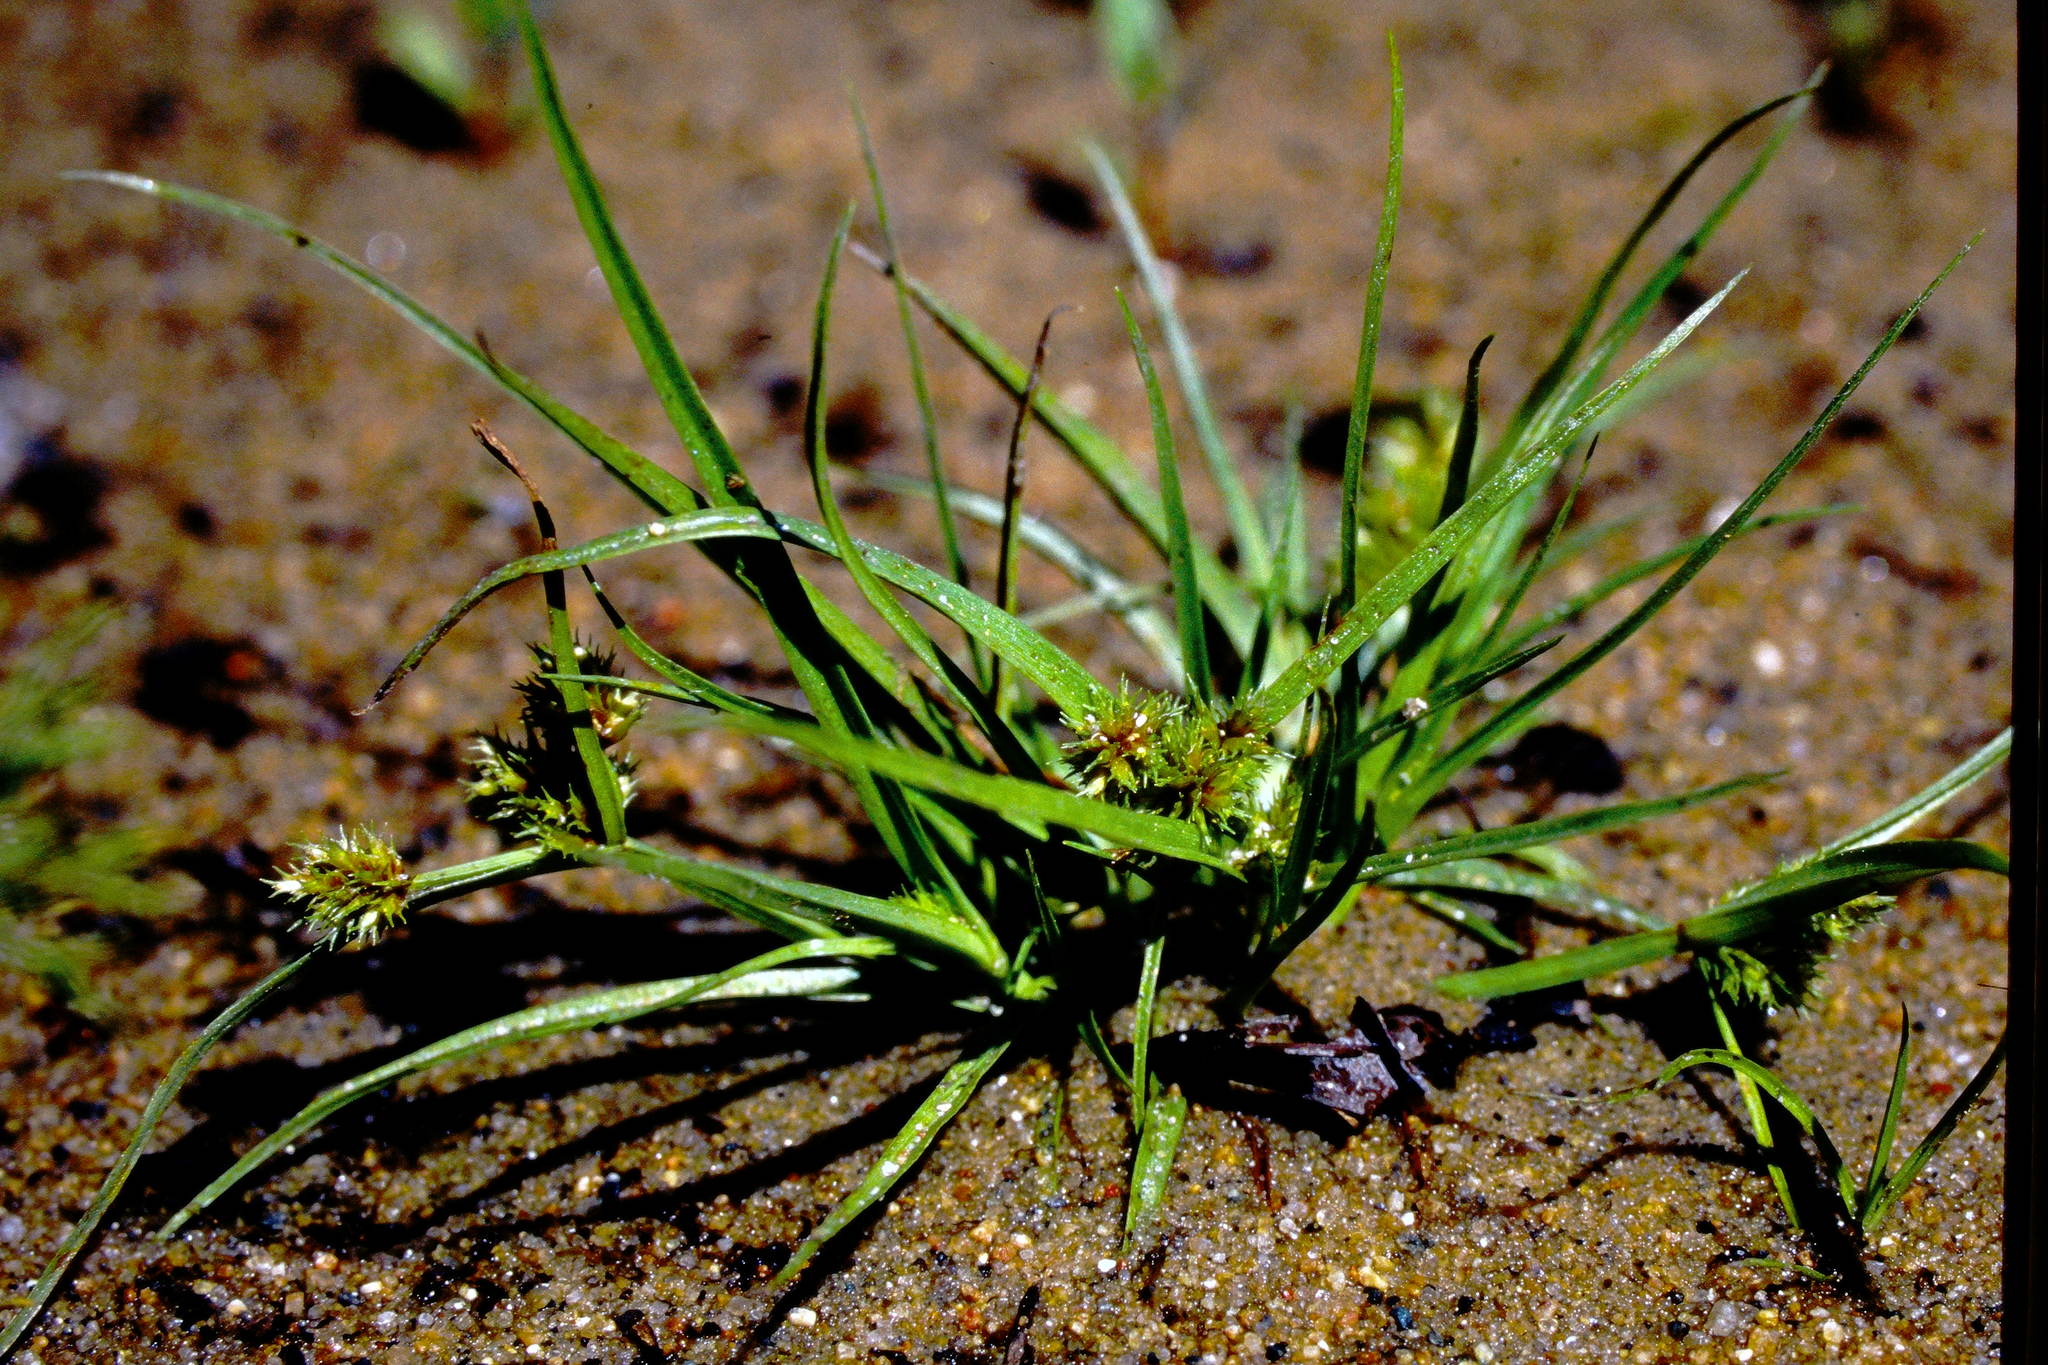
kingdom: Plantae
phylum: Tracheophyta
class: Liliopsida
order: Poales
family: Cyperaceae
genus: Cyperus
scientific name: Cyperus squarrosus
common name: Awned cyperus
